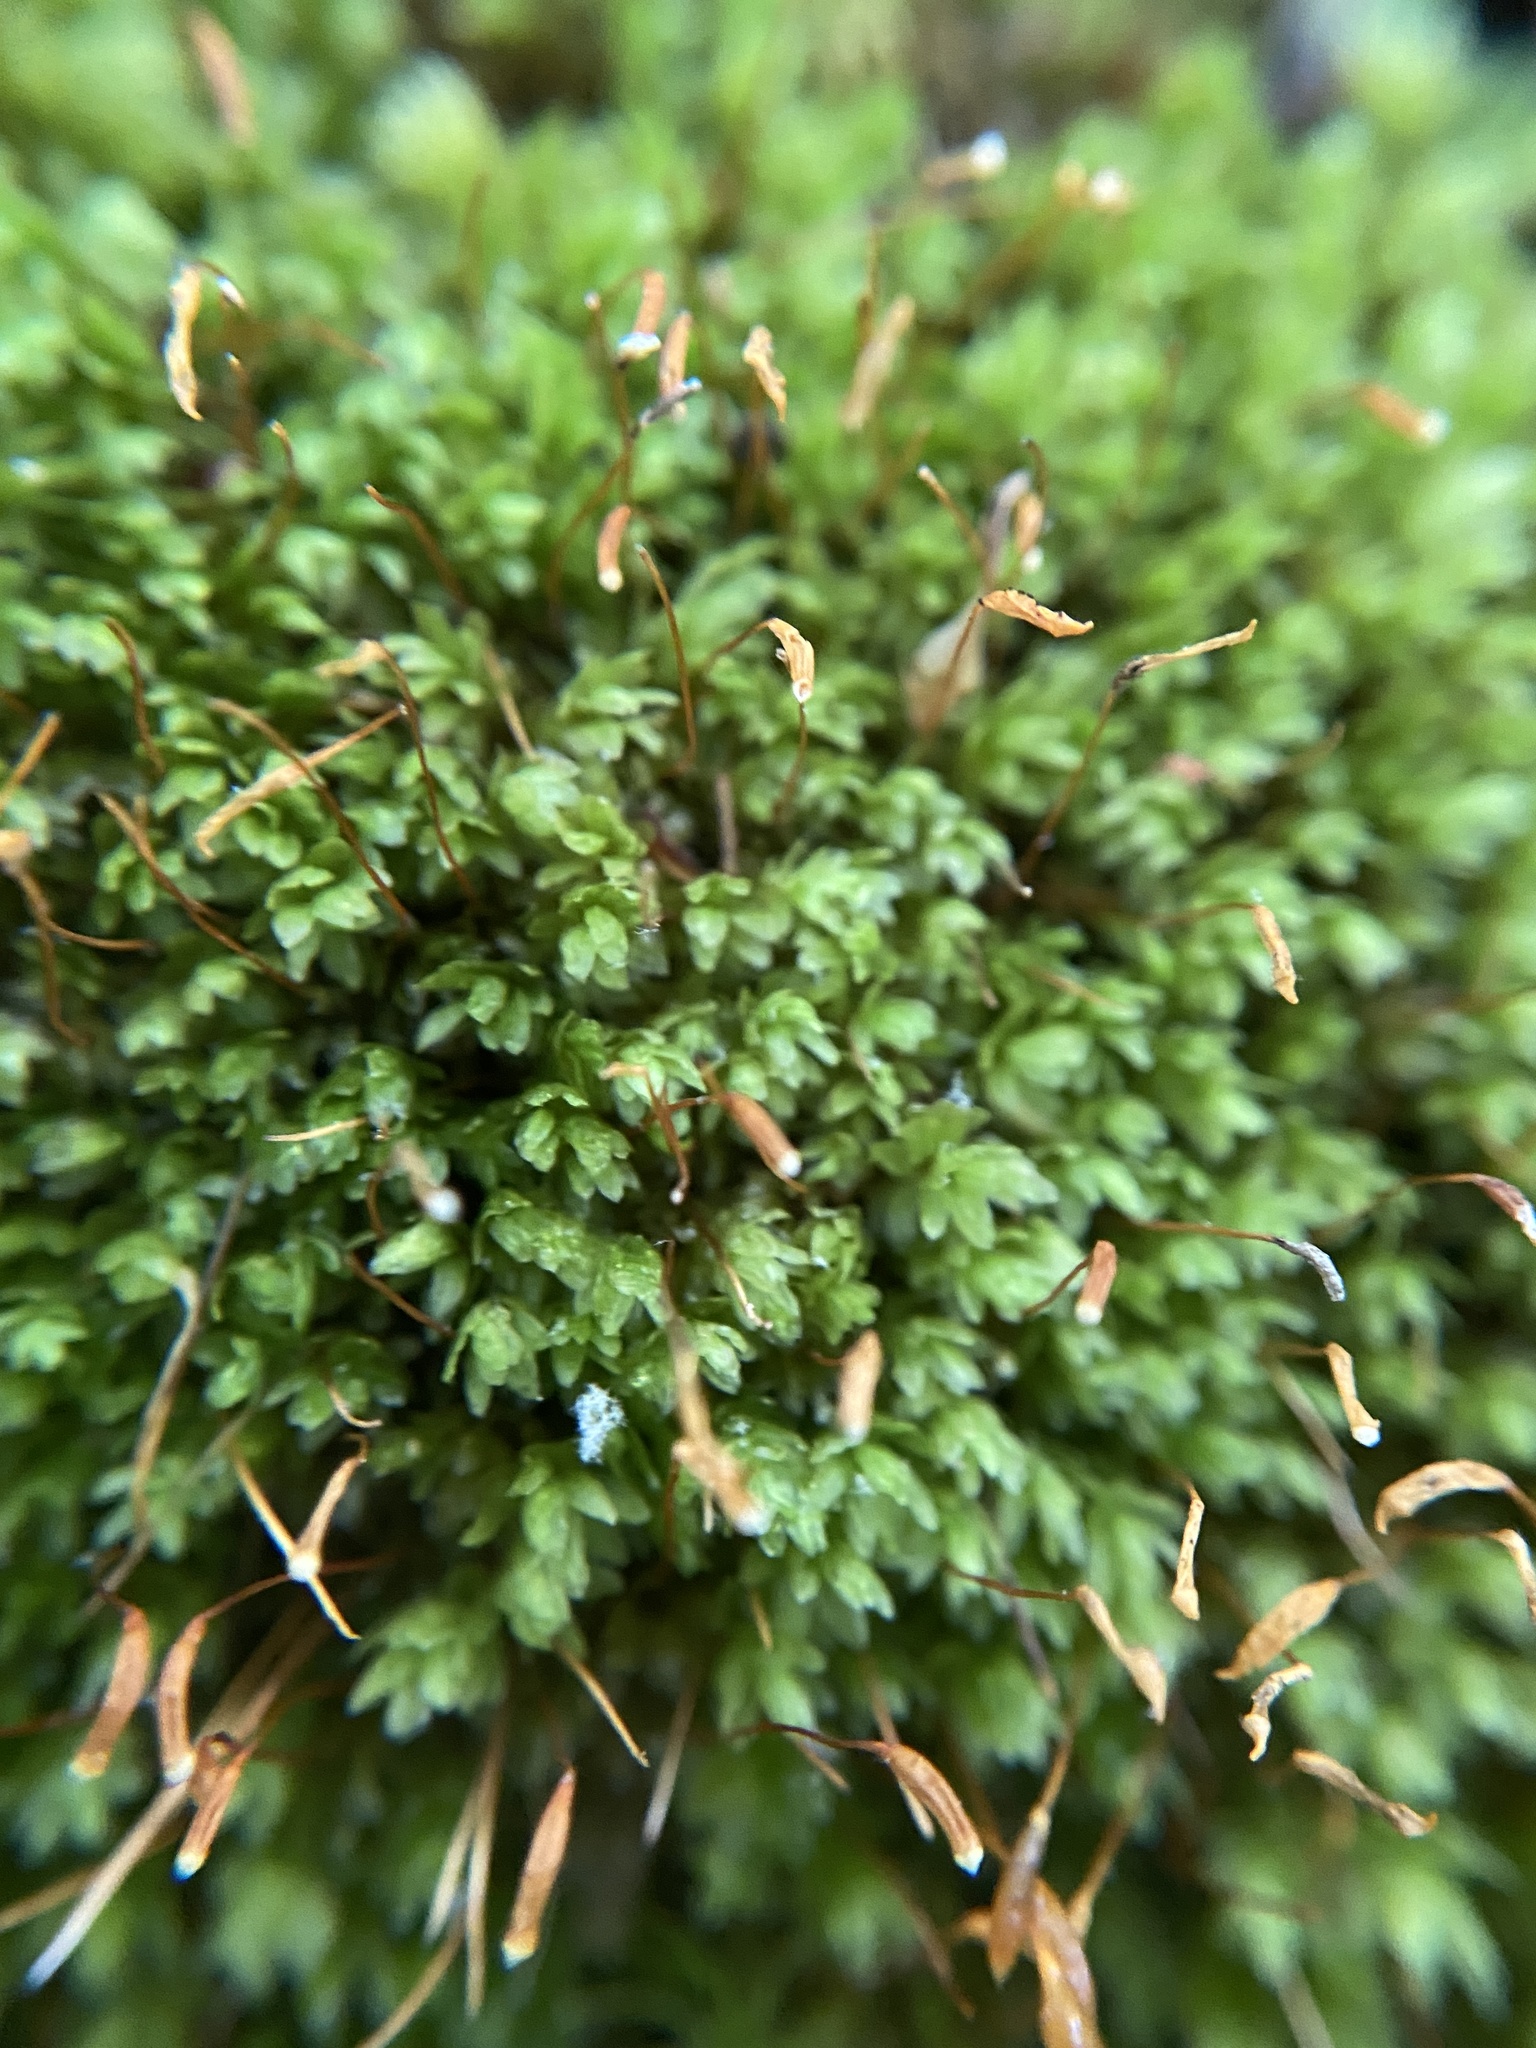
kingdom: Plantae
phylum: Bryophyta
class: Bryopsida
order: Aulacomniales
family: Aulacomniaceae
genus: Aulacomnium
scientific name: Aulacomnium heterostichum
